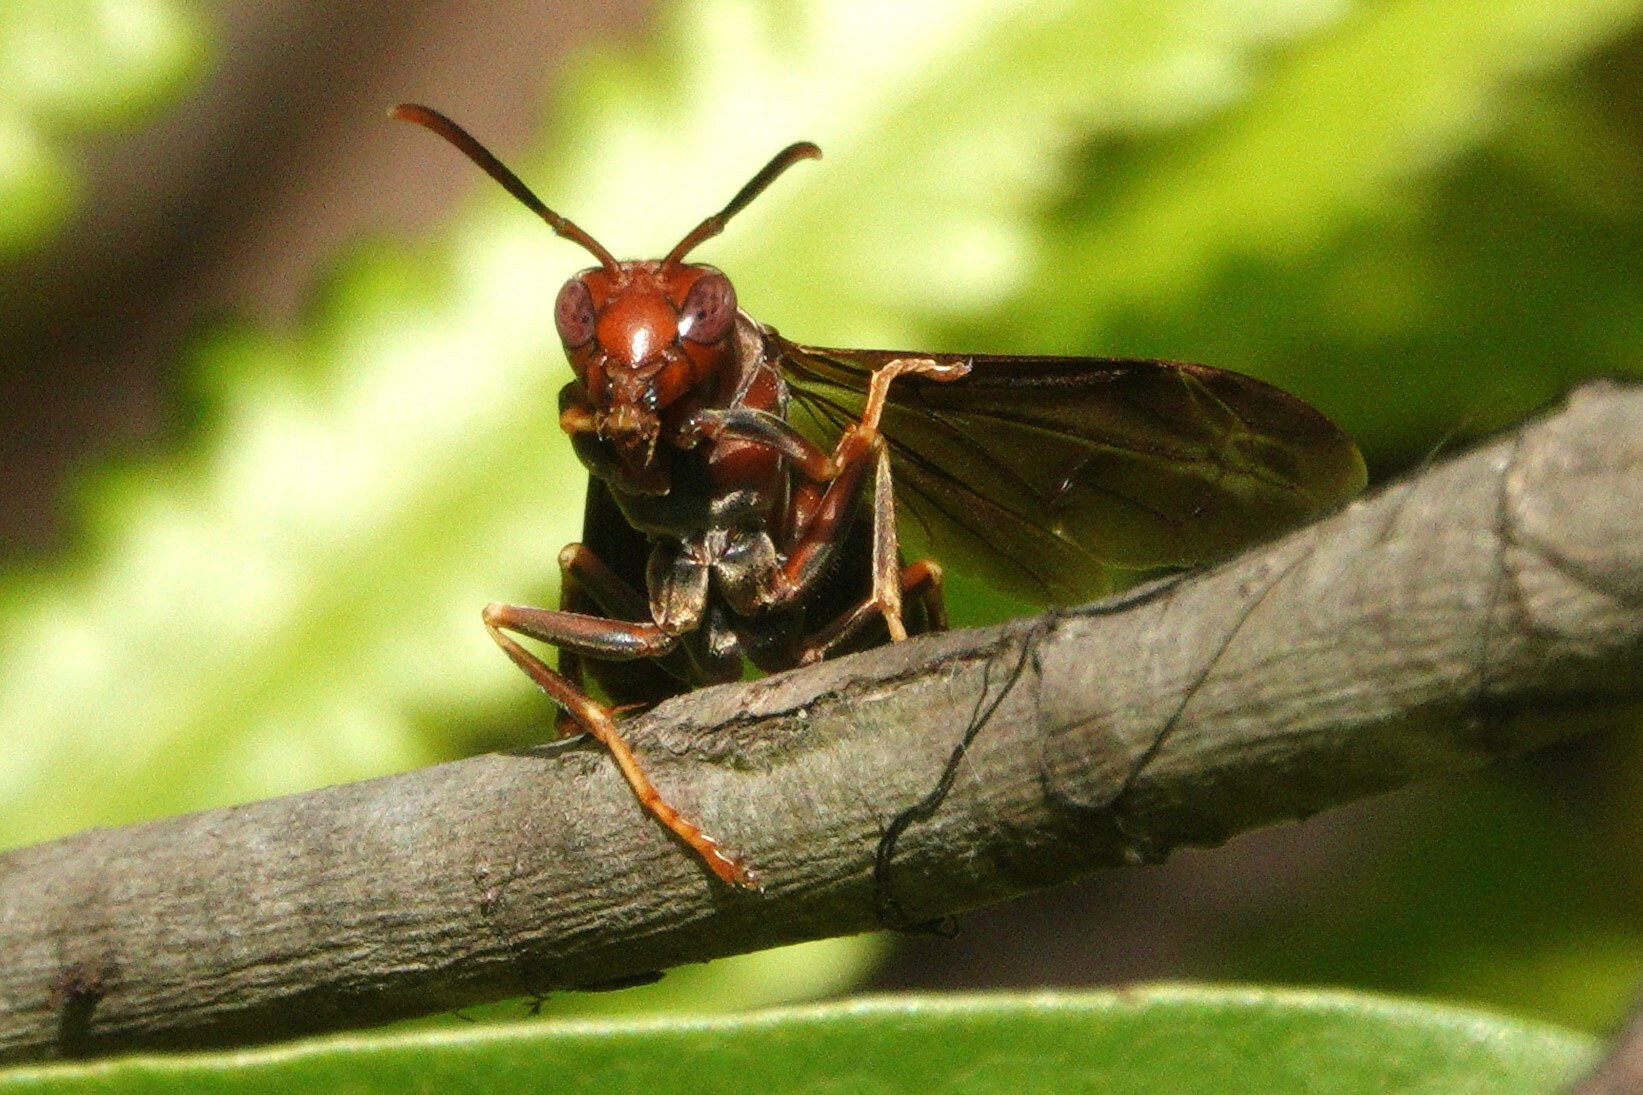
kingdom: Animalia
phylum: Arthropoda
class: Insecta
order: Hymenoptera
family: Vespidae
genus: Fuscopolistes
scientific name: Fuscopolistes
